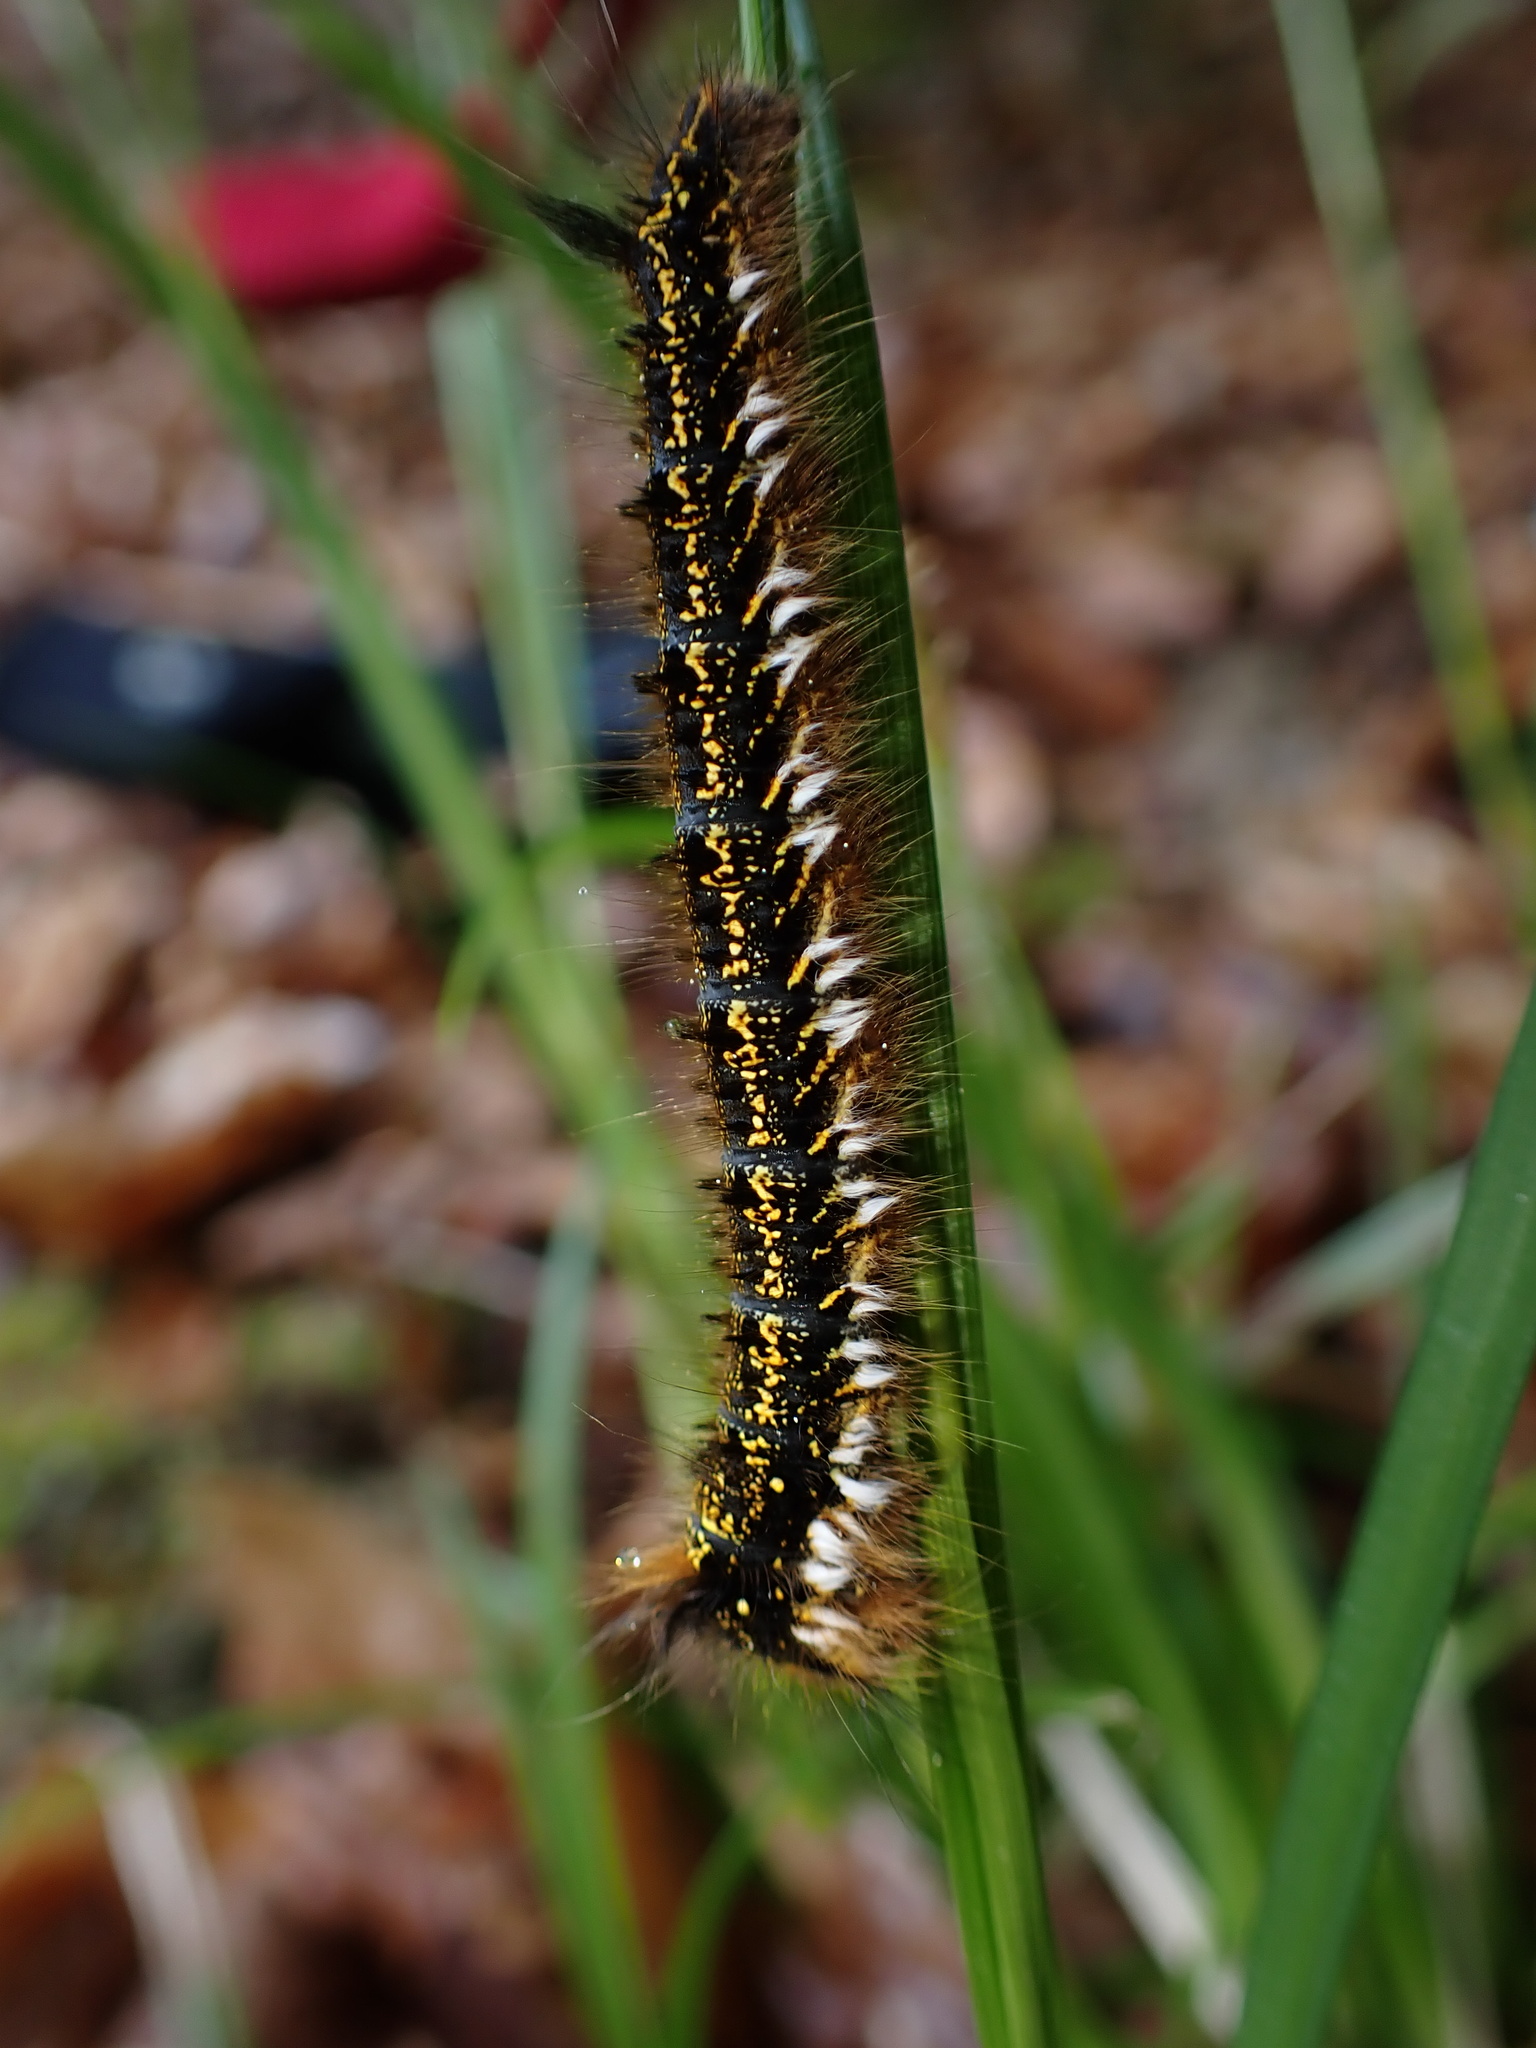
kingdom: Animalia
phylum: Arthropoda
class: Insecta
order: Lepidoptera
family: Lasiocampidae
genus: Euthrix
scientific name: Euthrix potatoria
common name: Drinker
